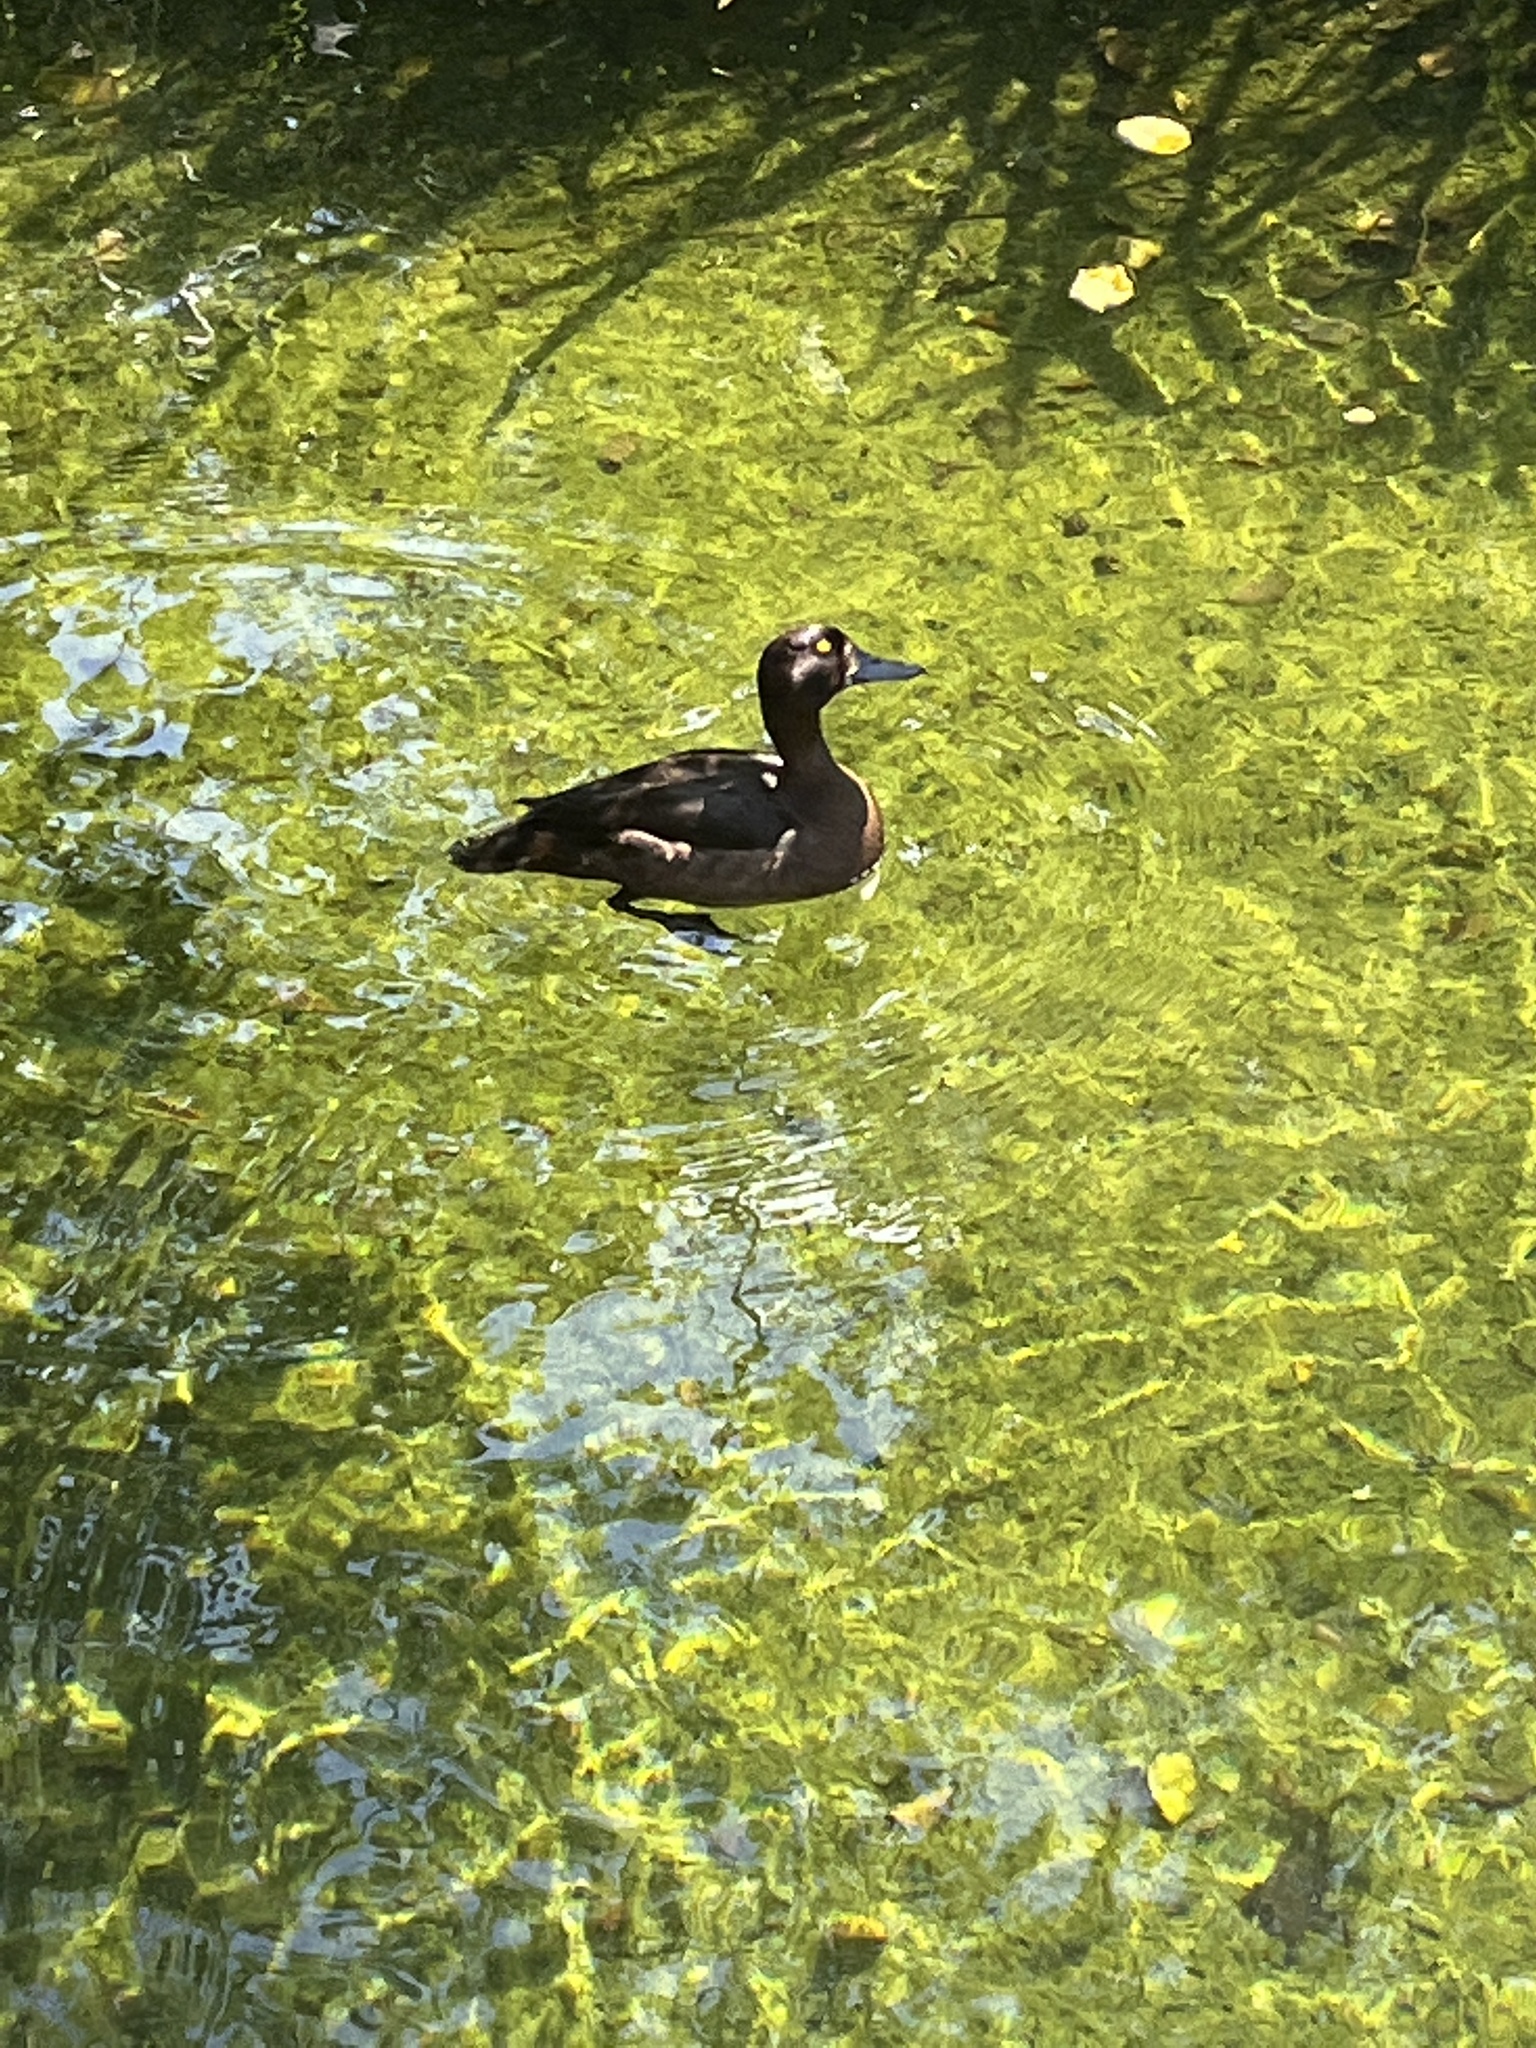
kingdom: Animalia
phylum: Chordata
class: Aves
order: Anseriformes
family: Anatidae
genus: Aythya
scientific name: Aythya fuligula
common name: Tufted duck
